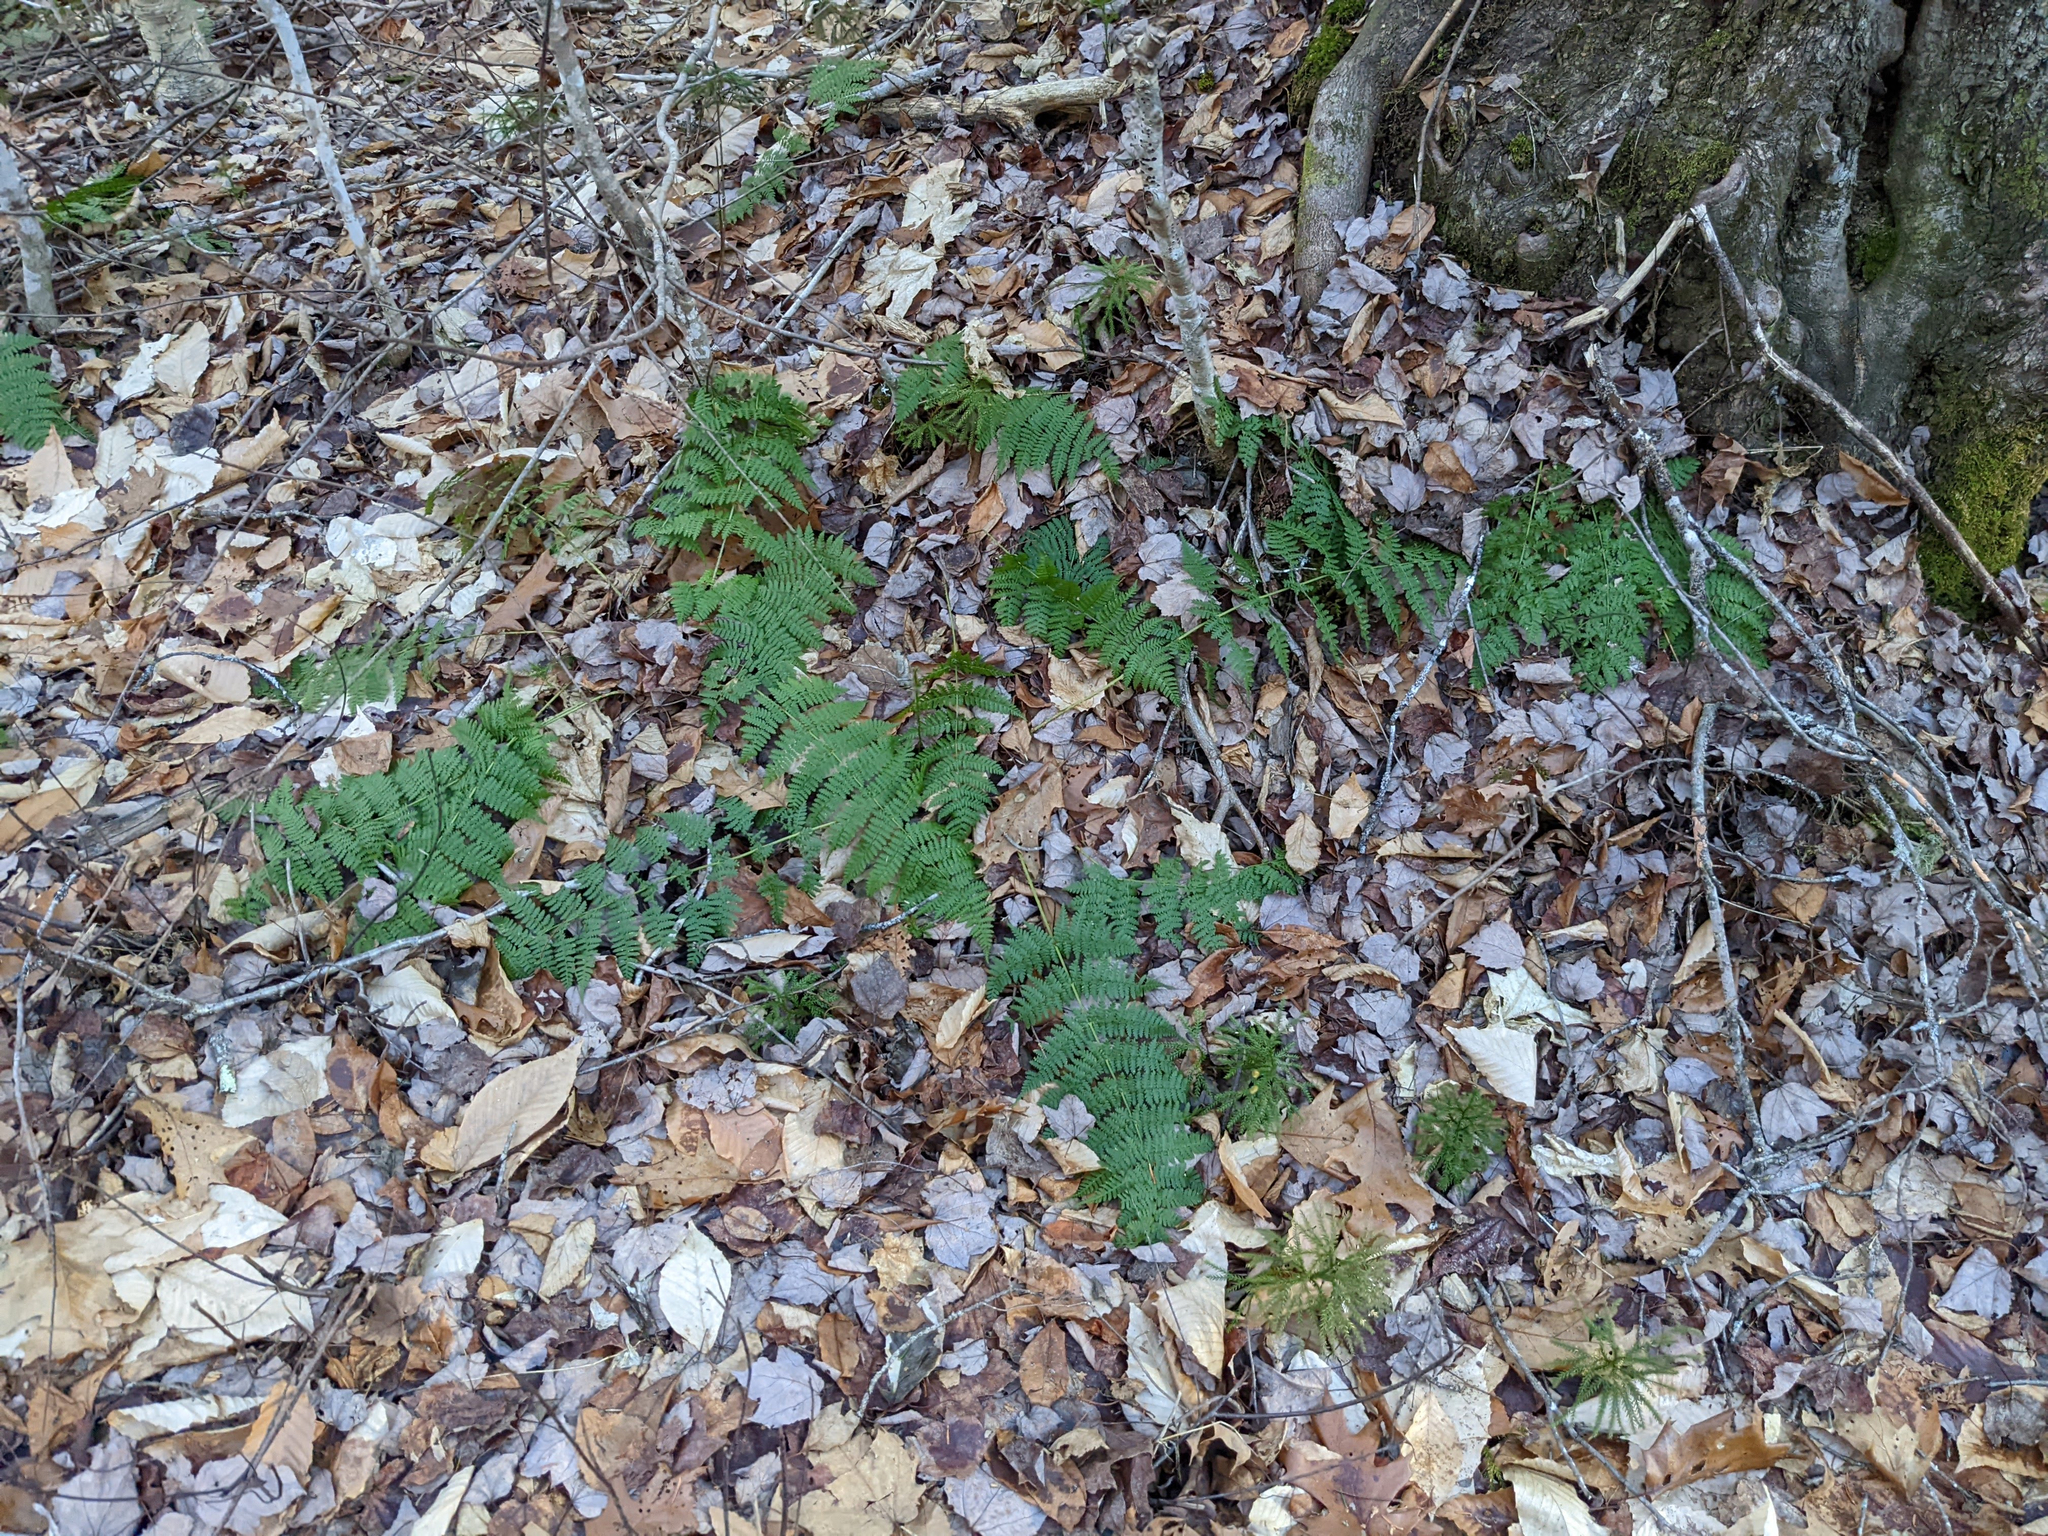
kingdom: Plantae
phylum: Tracheophyta
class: Polypodiopsida
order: Polypodiales
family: Dryopteridaceae
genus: Dryopteris
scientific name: Dryopteris intermedia
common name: Evergreen wood fern
